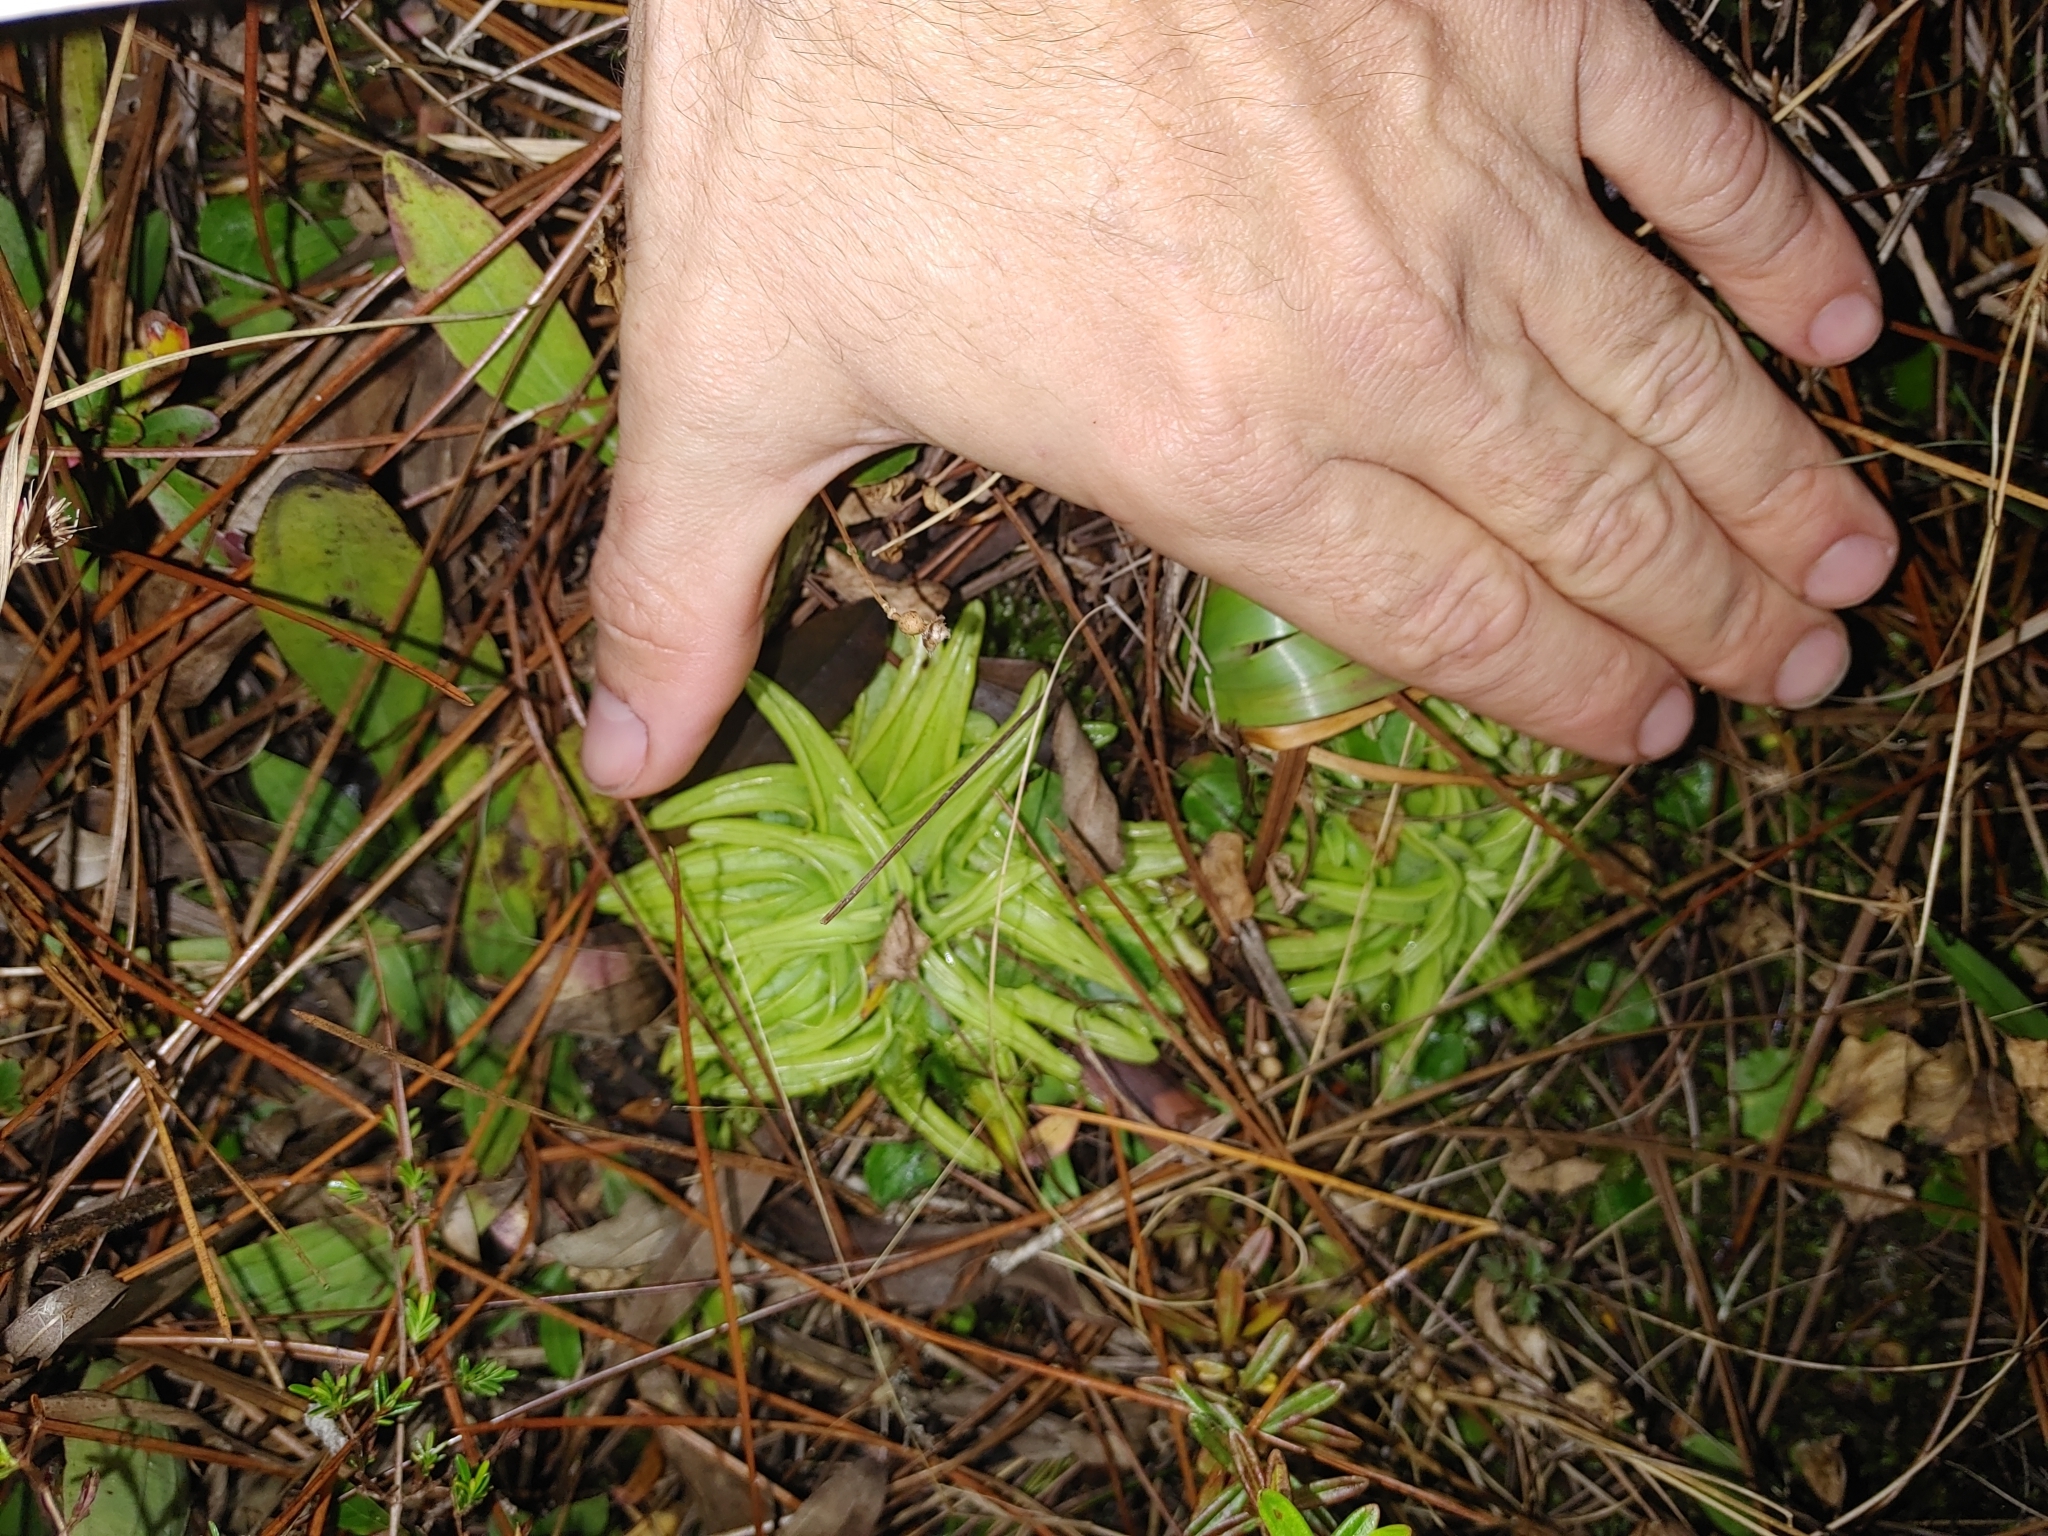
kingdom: Plantae
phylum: Tracheophyta
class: Magnoliopsida
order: Lamiales
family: Lentibulariaceae
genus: Pinguicula
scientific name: Pinguicula caerulea
